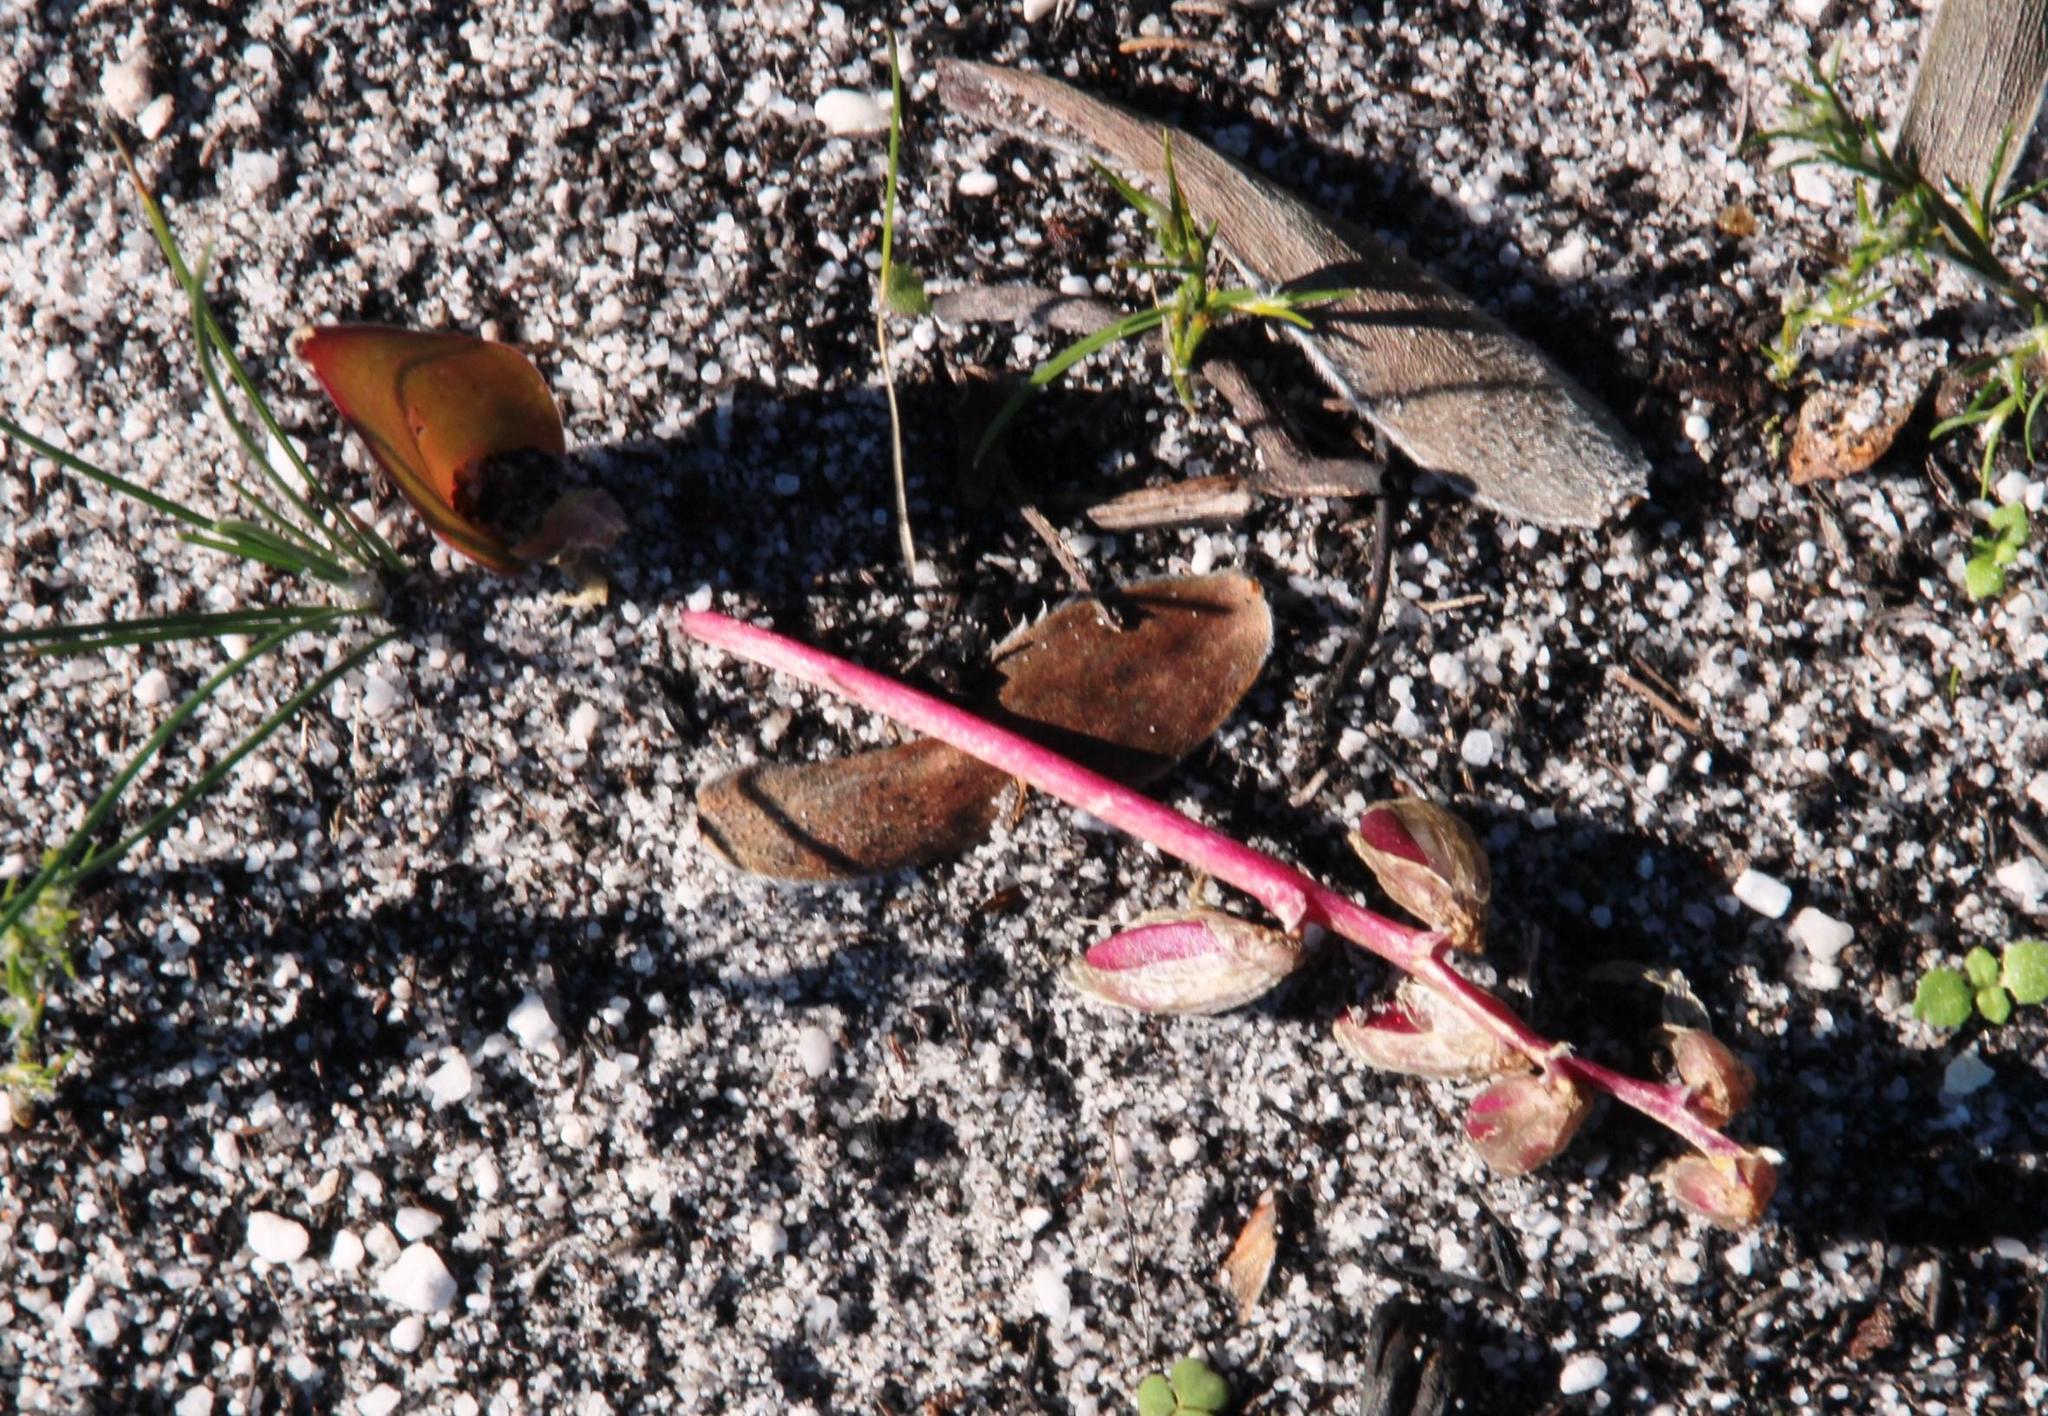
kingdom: Plantae
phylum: Tracheophyta
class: Liliopsida
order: Asparagales
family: Asparagaceae
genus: Lachenalia
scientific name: Lachenalia punctata
